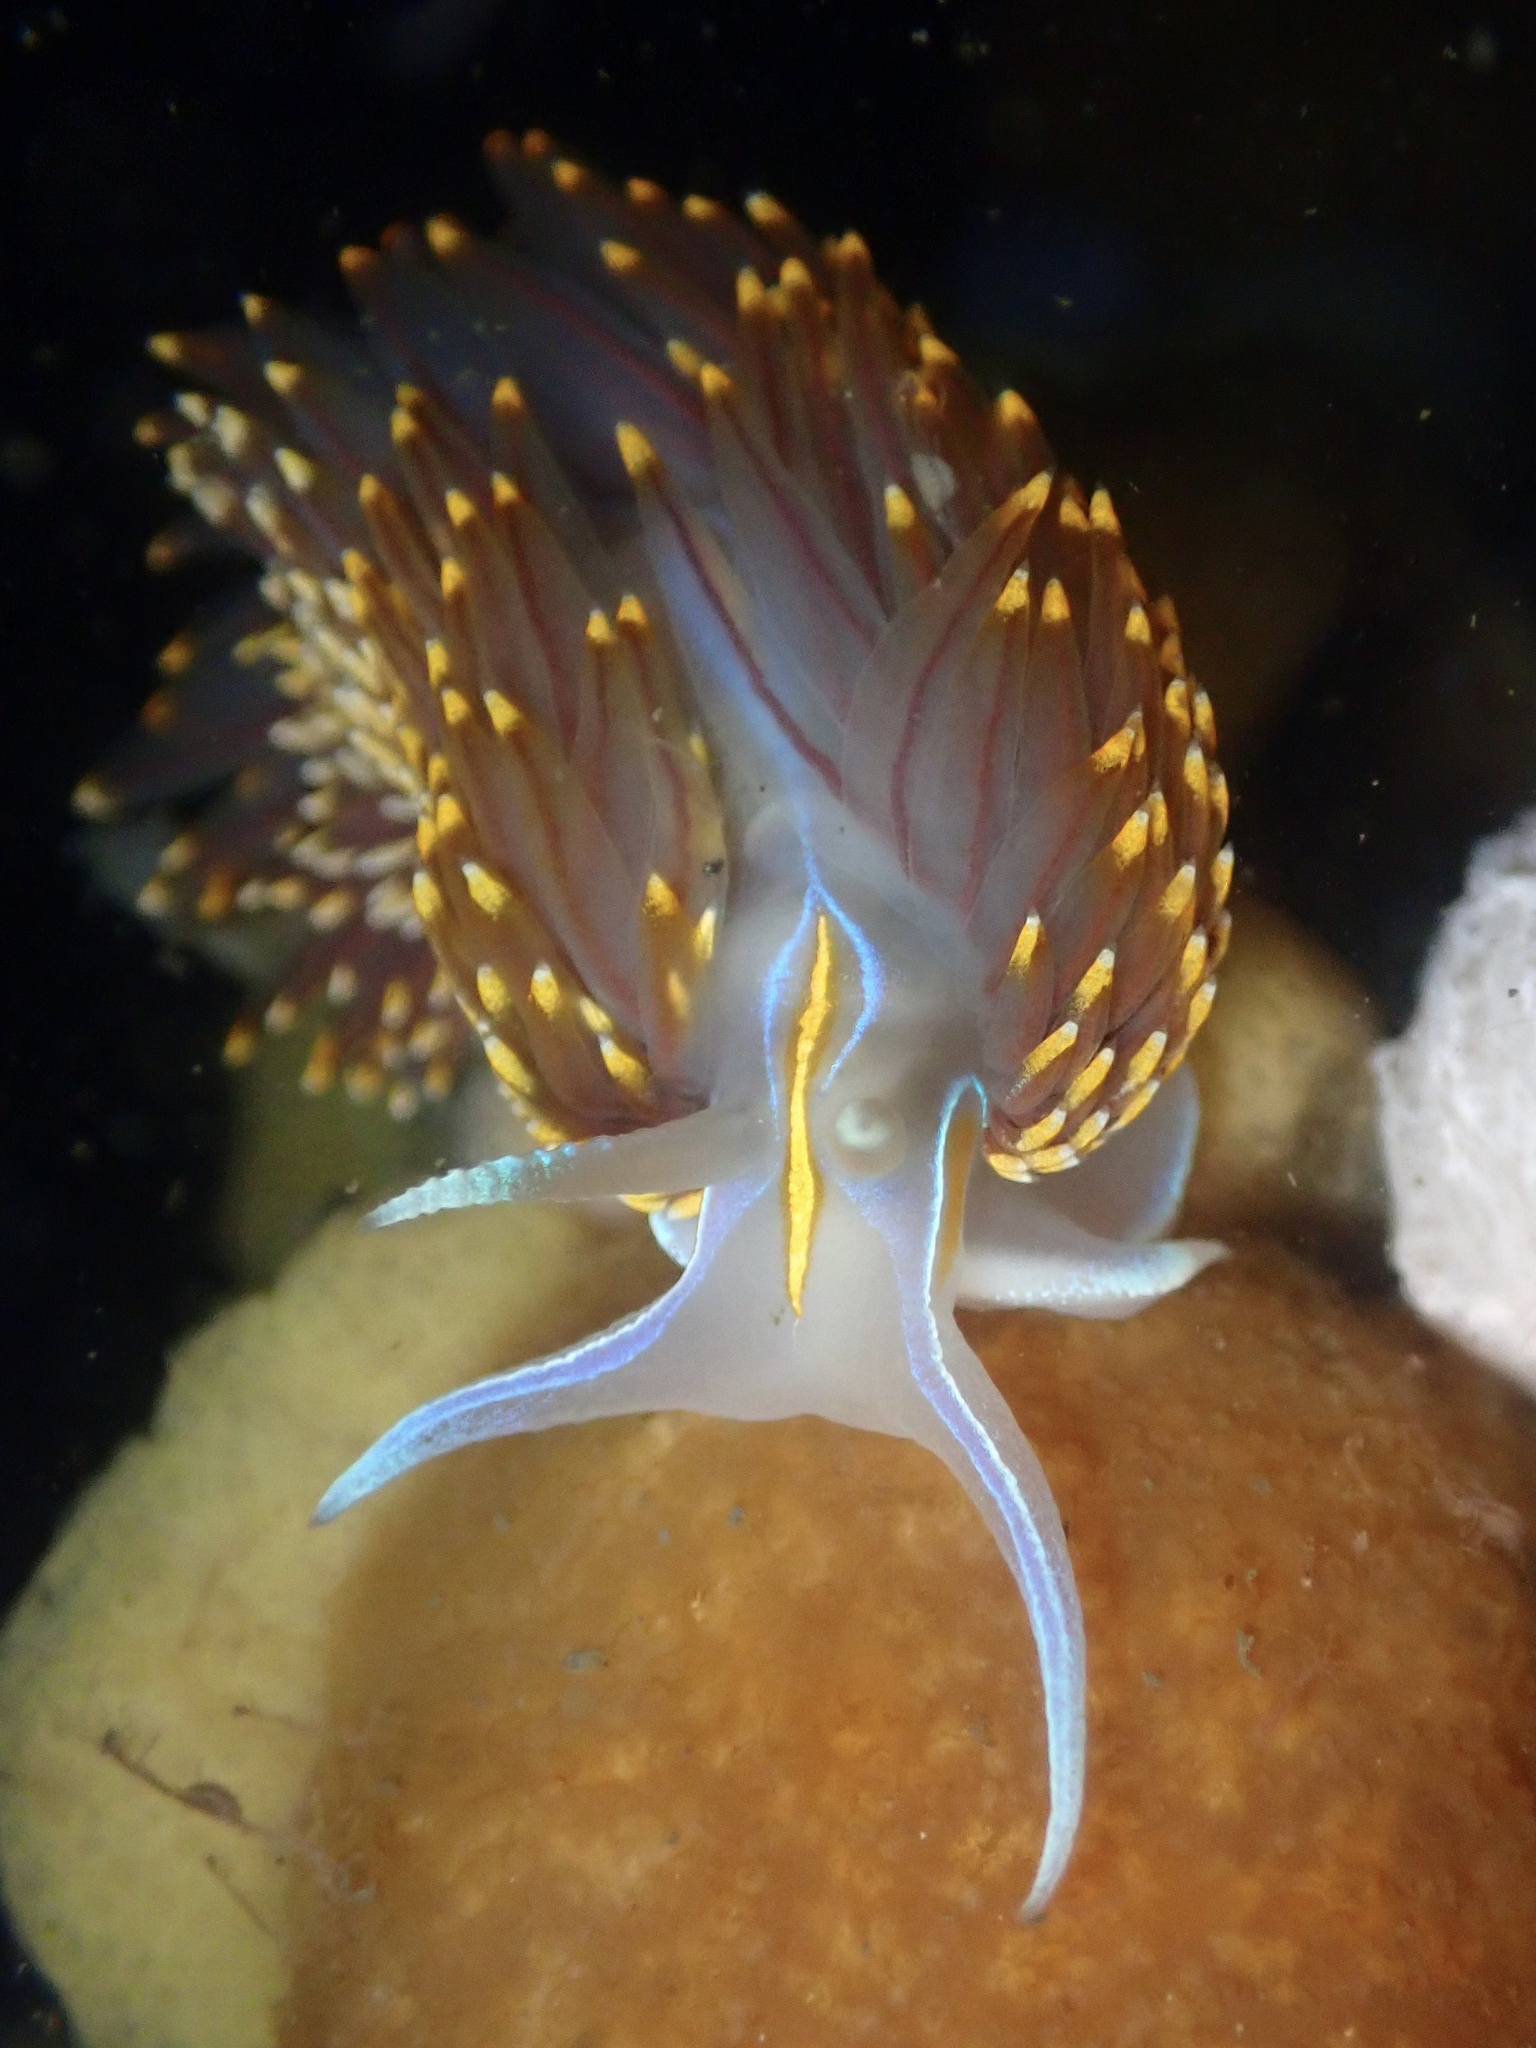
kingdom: Animalia
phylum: Mollusca
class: Gastropoda
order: Nudibranchia
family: Myrrhinidae
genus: Hermissenda
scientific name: Hermissenda opalescens
